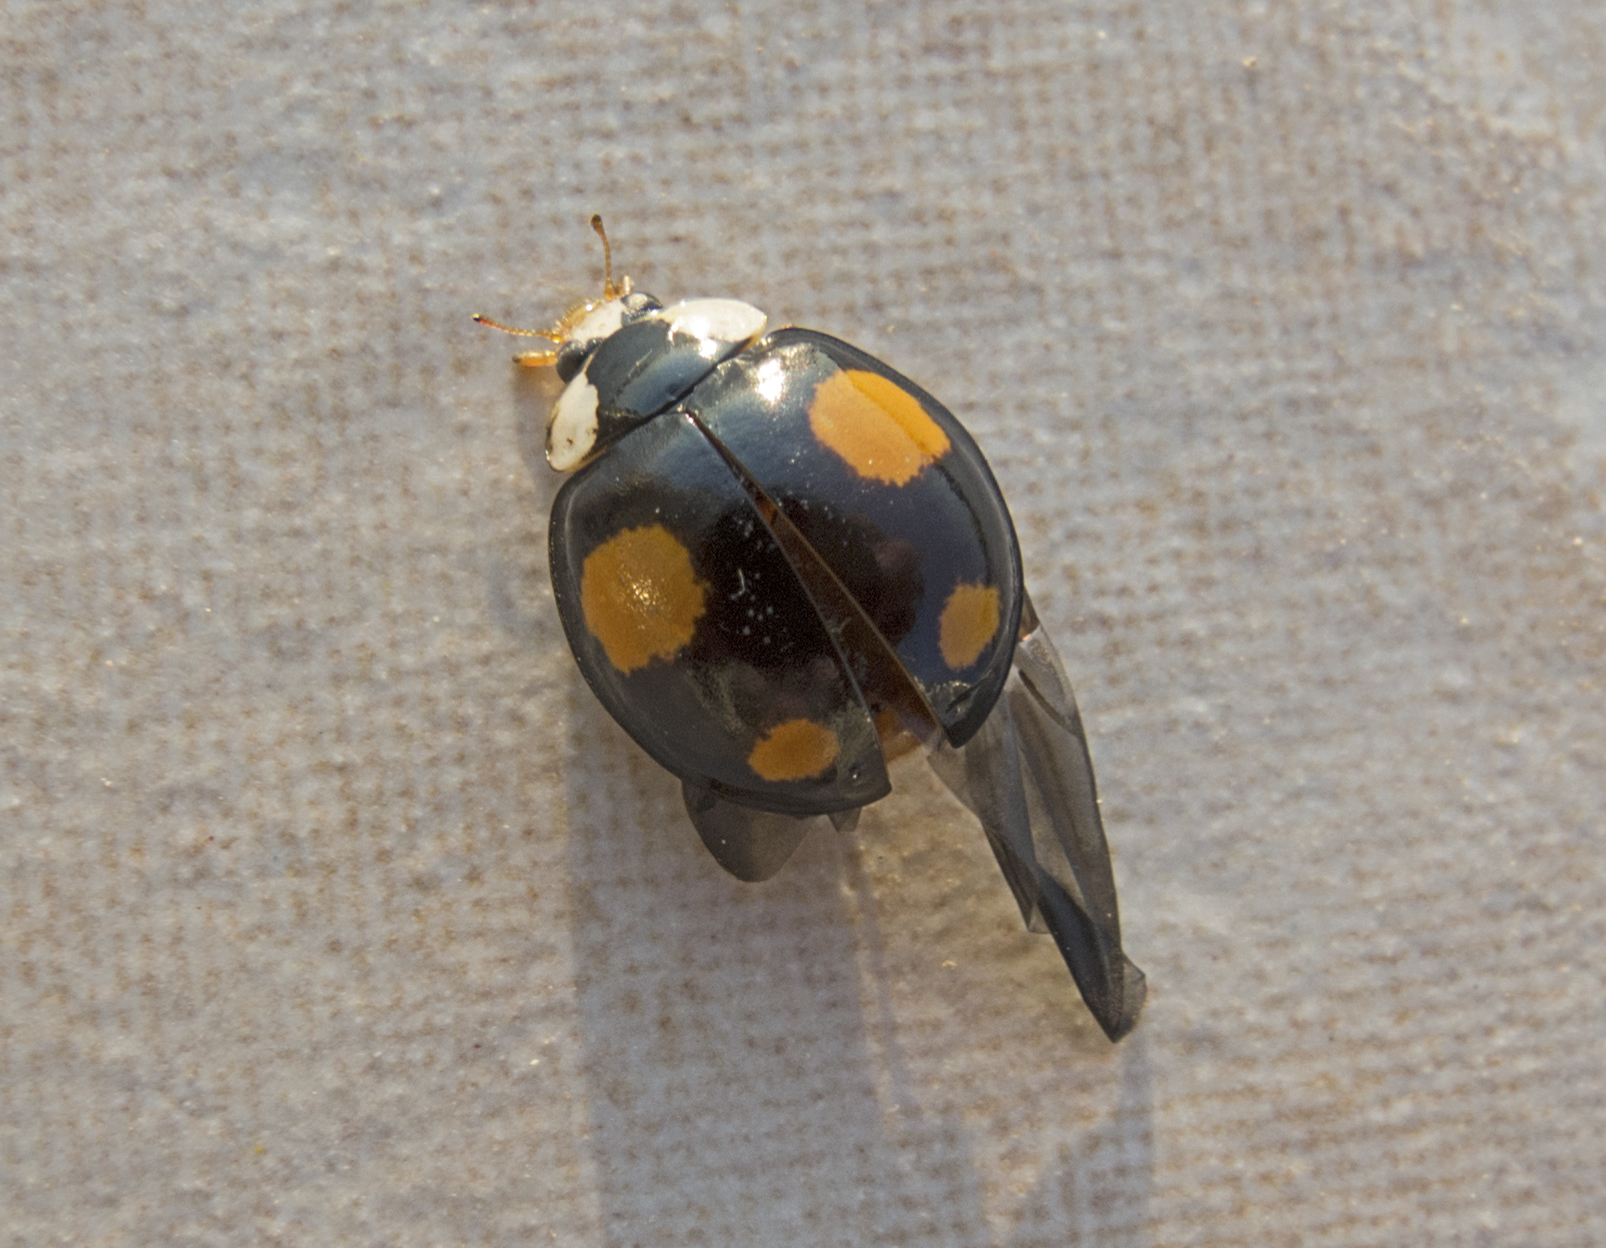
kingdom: Animalia
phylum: Arthropoda
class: Insecta
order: Coleoptera
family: Coccinellidae
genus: Harmonia
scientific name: Harmonia axyridis
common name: Harlequin ladybird
